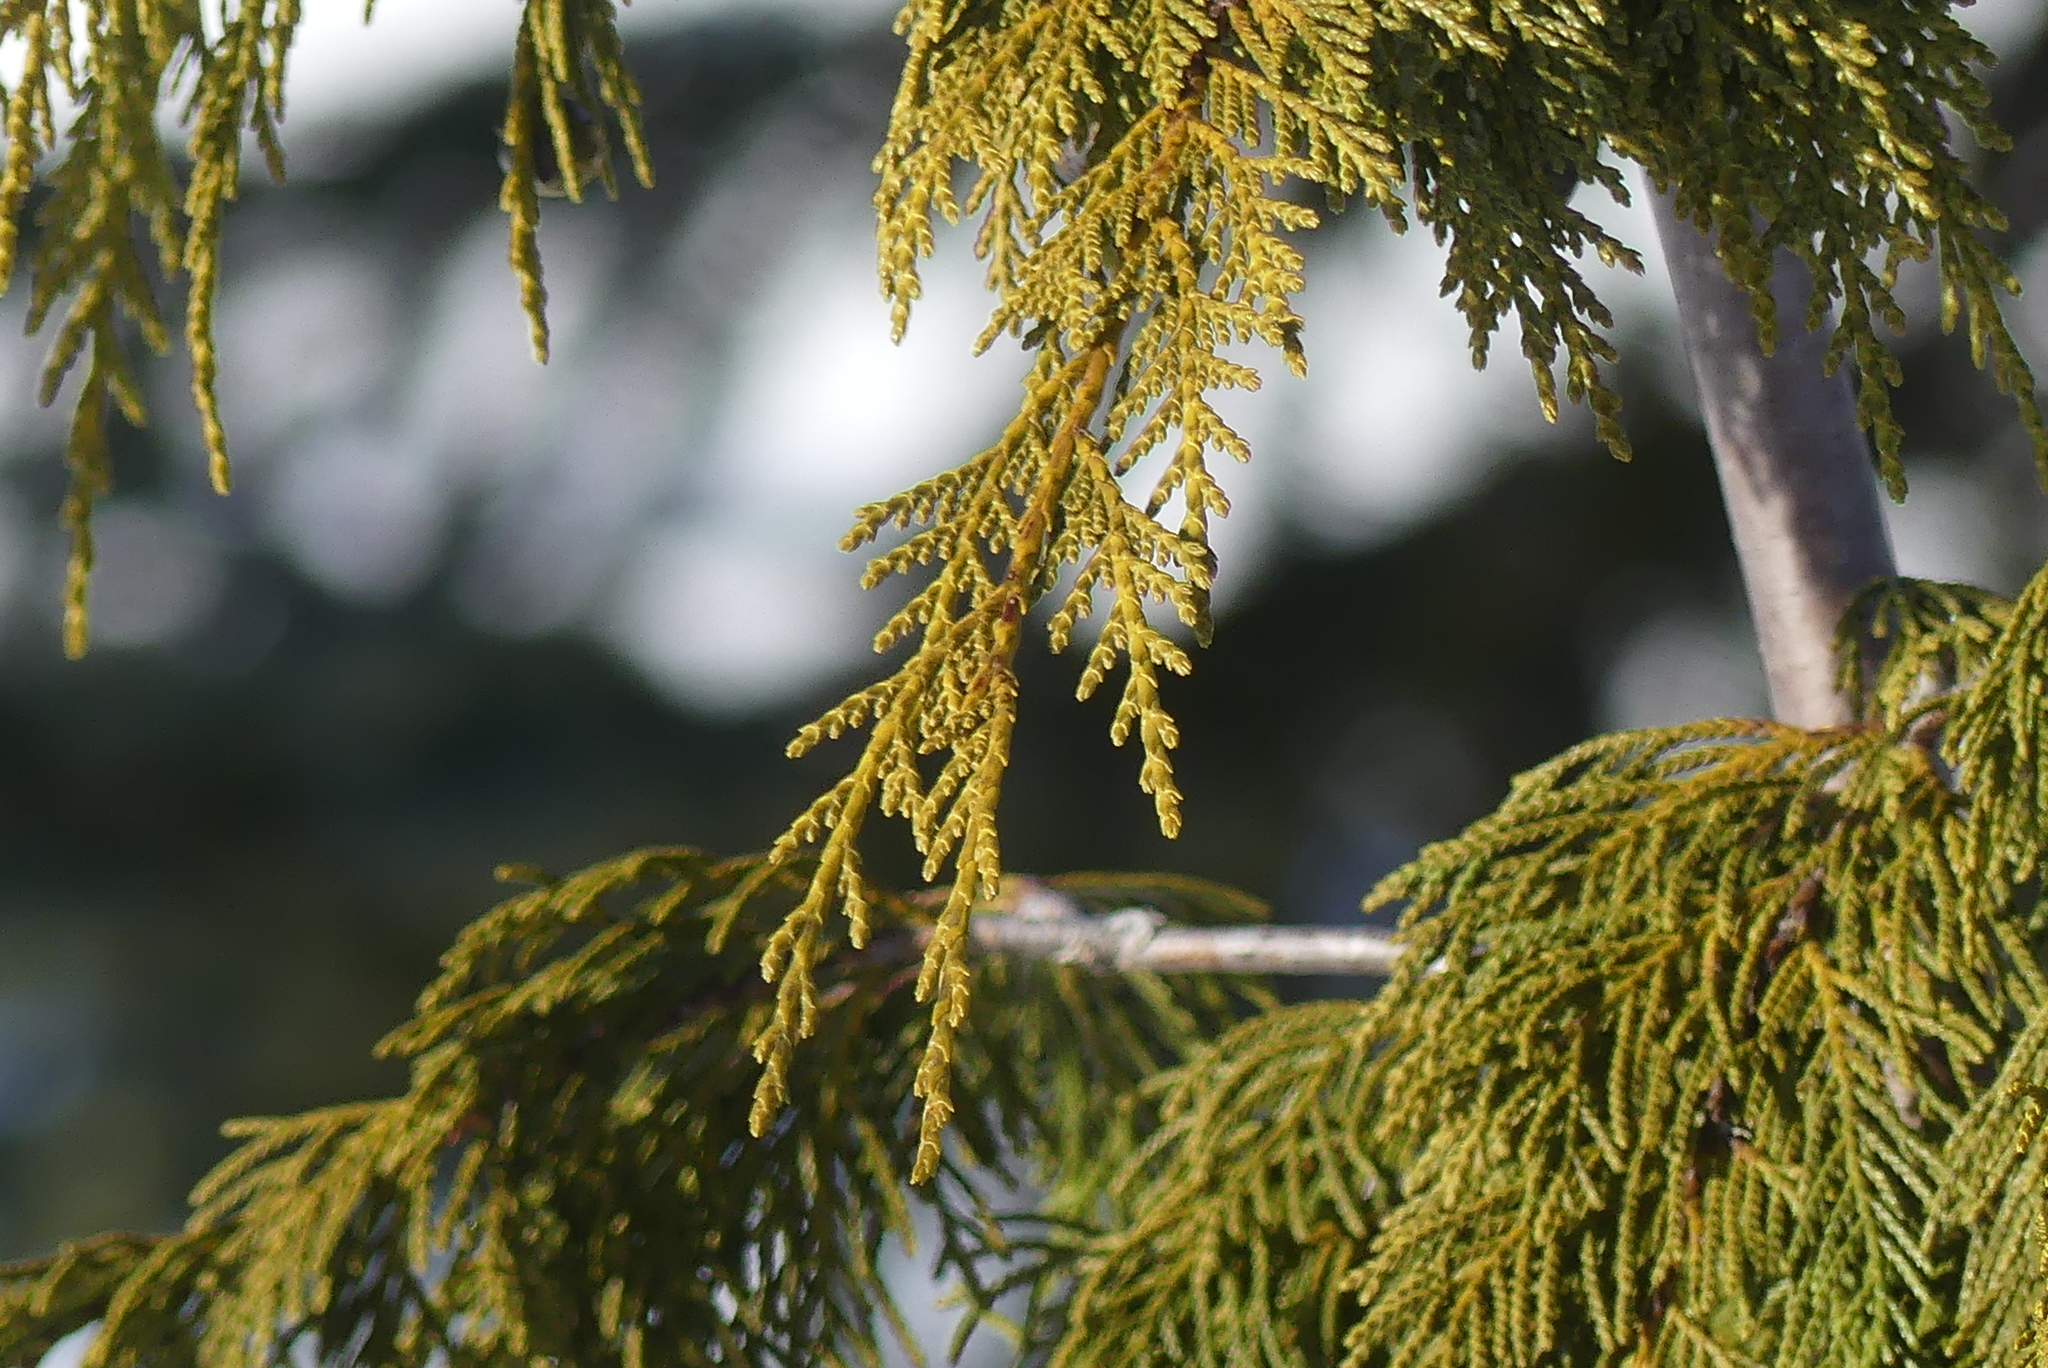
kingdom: Plantae
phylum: Tracheophyta
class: Pinopsida
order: Pinales
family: Cupressaceae
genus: Xanthocyparis
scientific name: Xanthocyparis nootkatensis
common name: Nootka cypress
